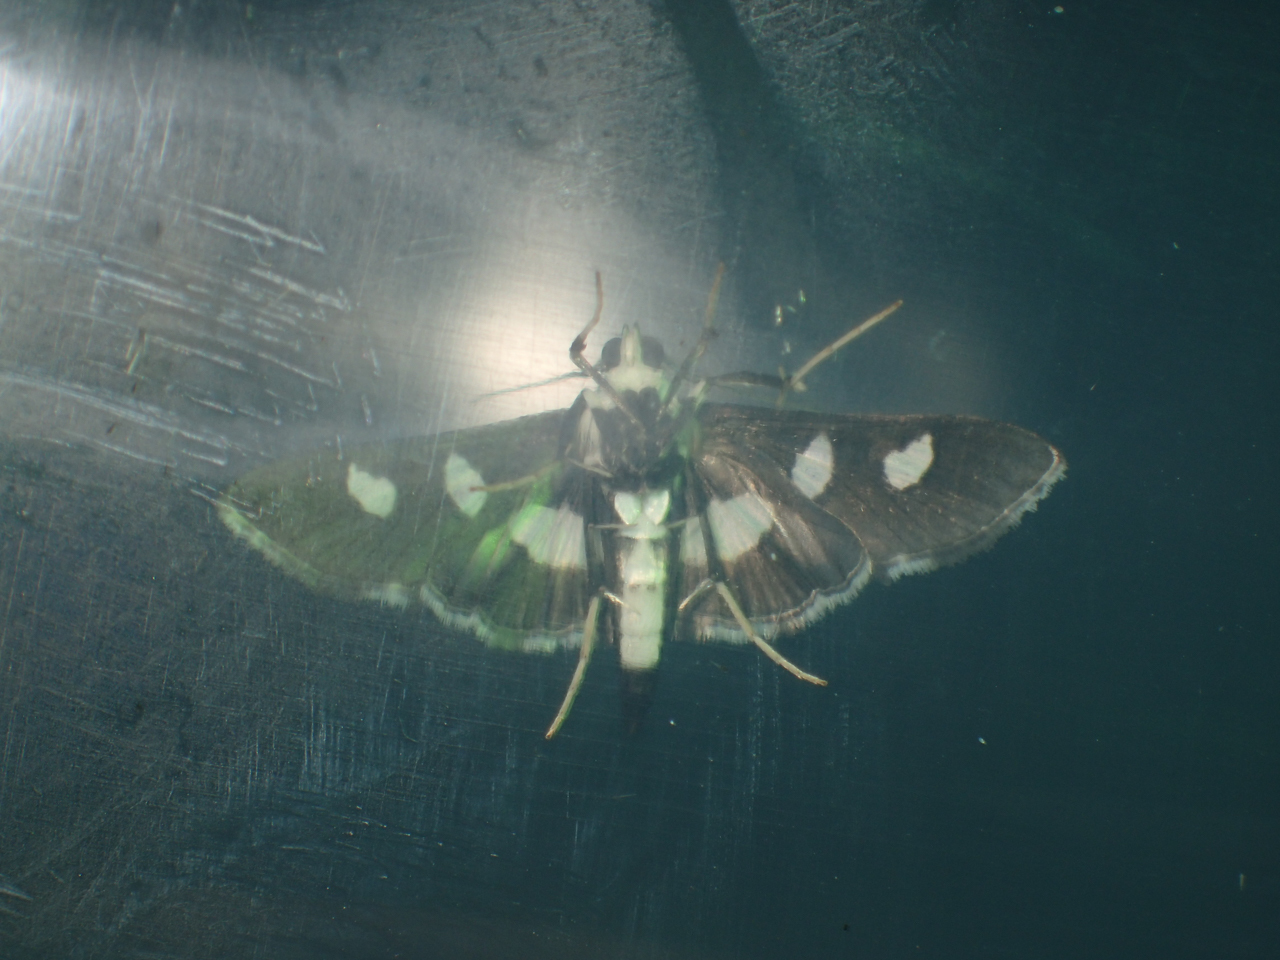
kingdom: Animalia
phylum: Arthropoda
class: Insecta
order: Lepidoptera
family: Crambidae
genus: Desmia
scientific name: Desmia funeralis
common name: Grape leaf folder moth
